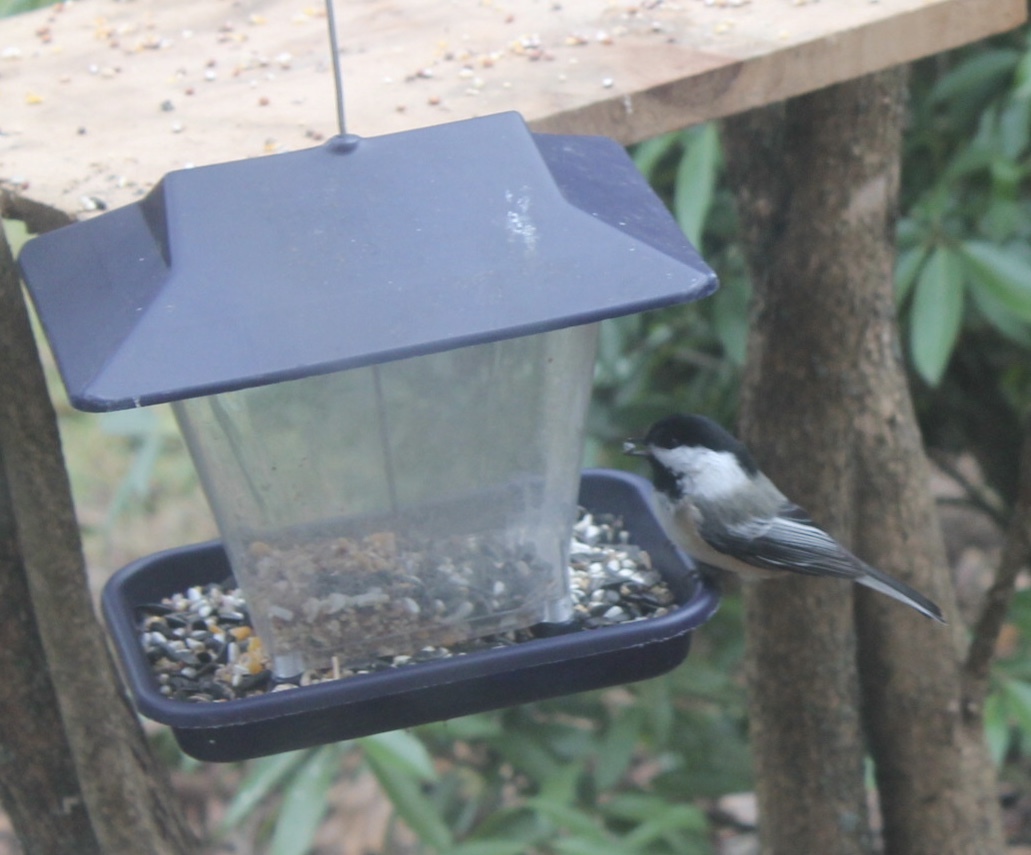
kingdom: Animalia
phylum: Chordata
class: Aves
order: Passeriformes
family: Paridae
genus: Poecile
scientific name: Poecile atricapillus
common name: Black-capped chickadee
